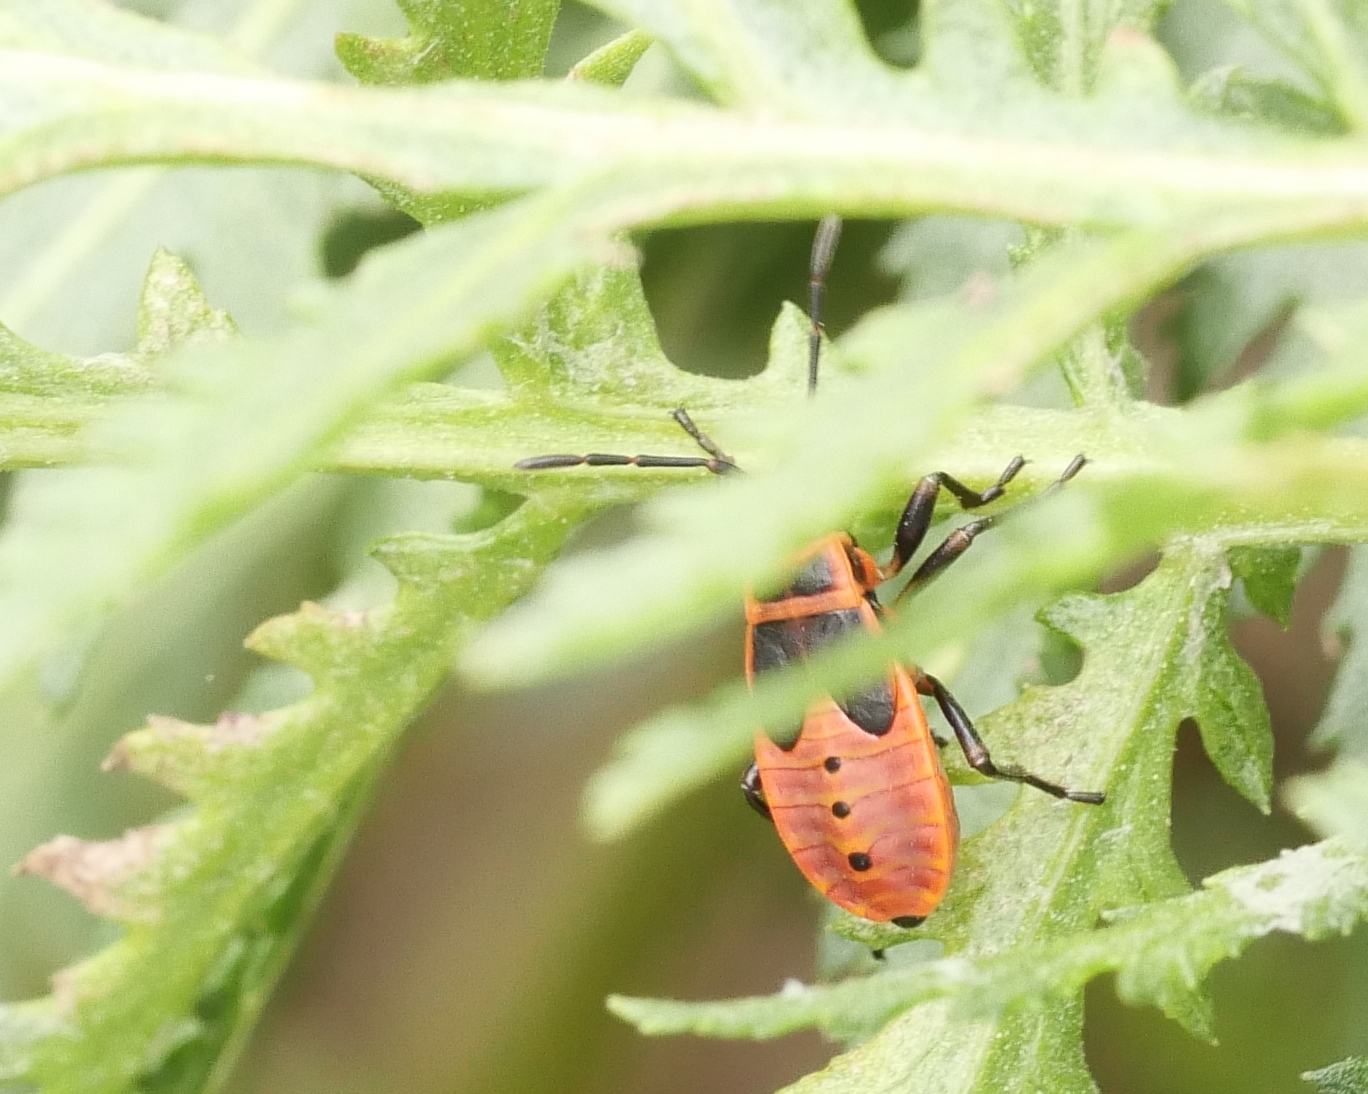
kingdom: Animalia
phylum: Arthropoda
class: Insecta
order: Hemiptera
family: Pyrrhocoridae
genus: Pyrrhocoris
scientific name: Pyrrhocoris apterus
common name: Firebug
